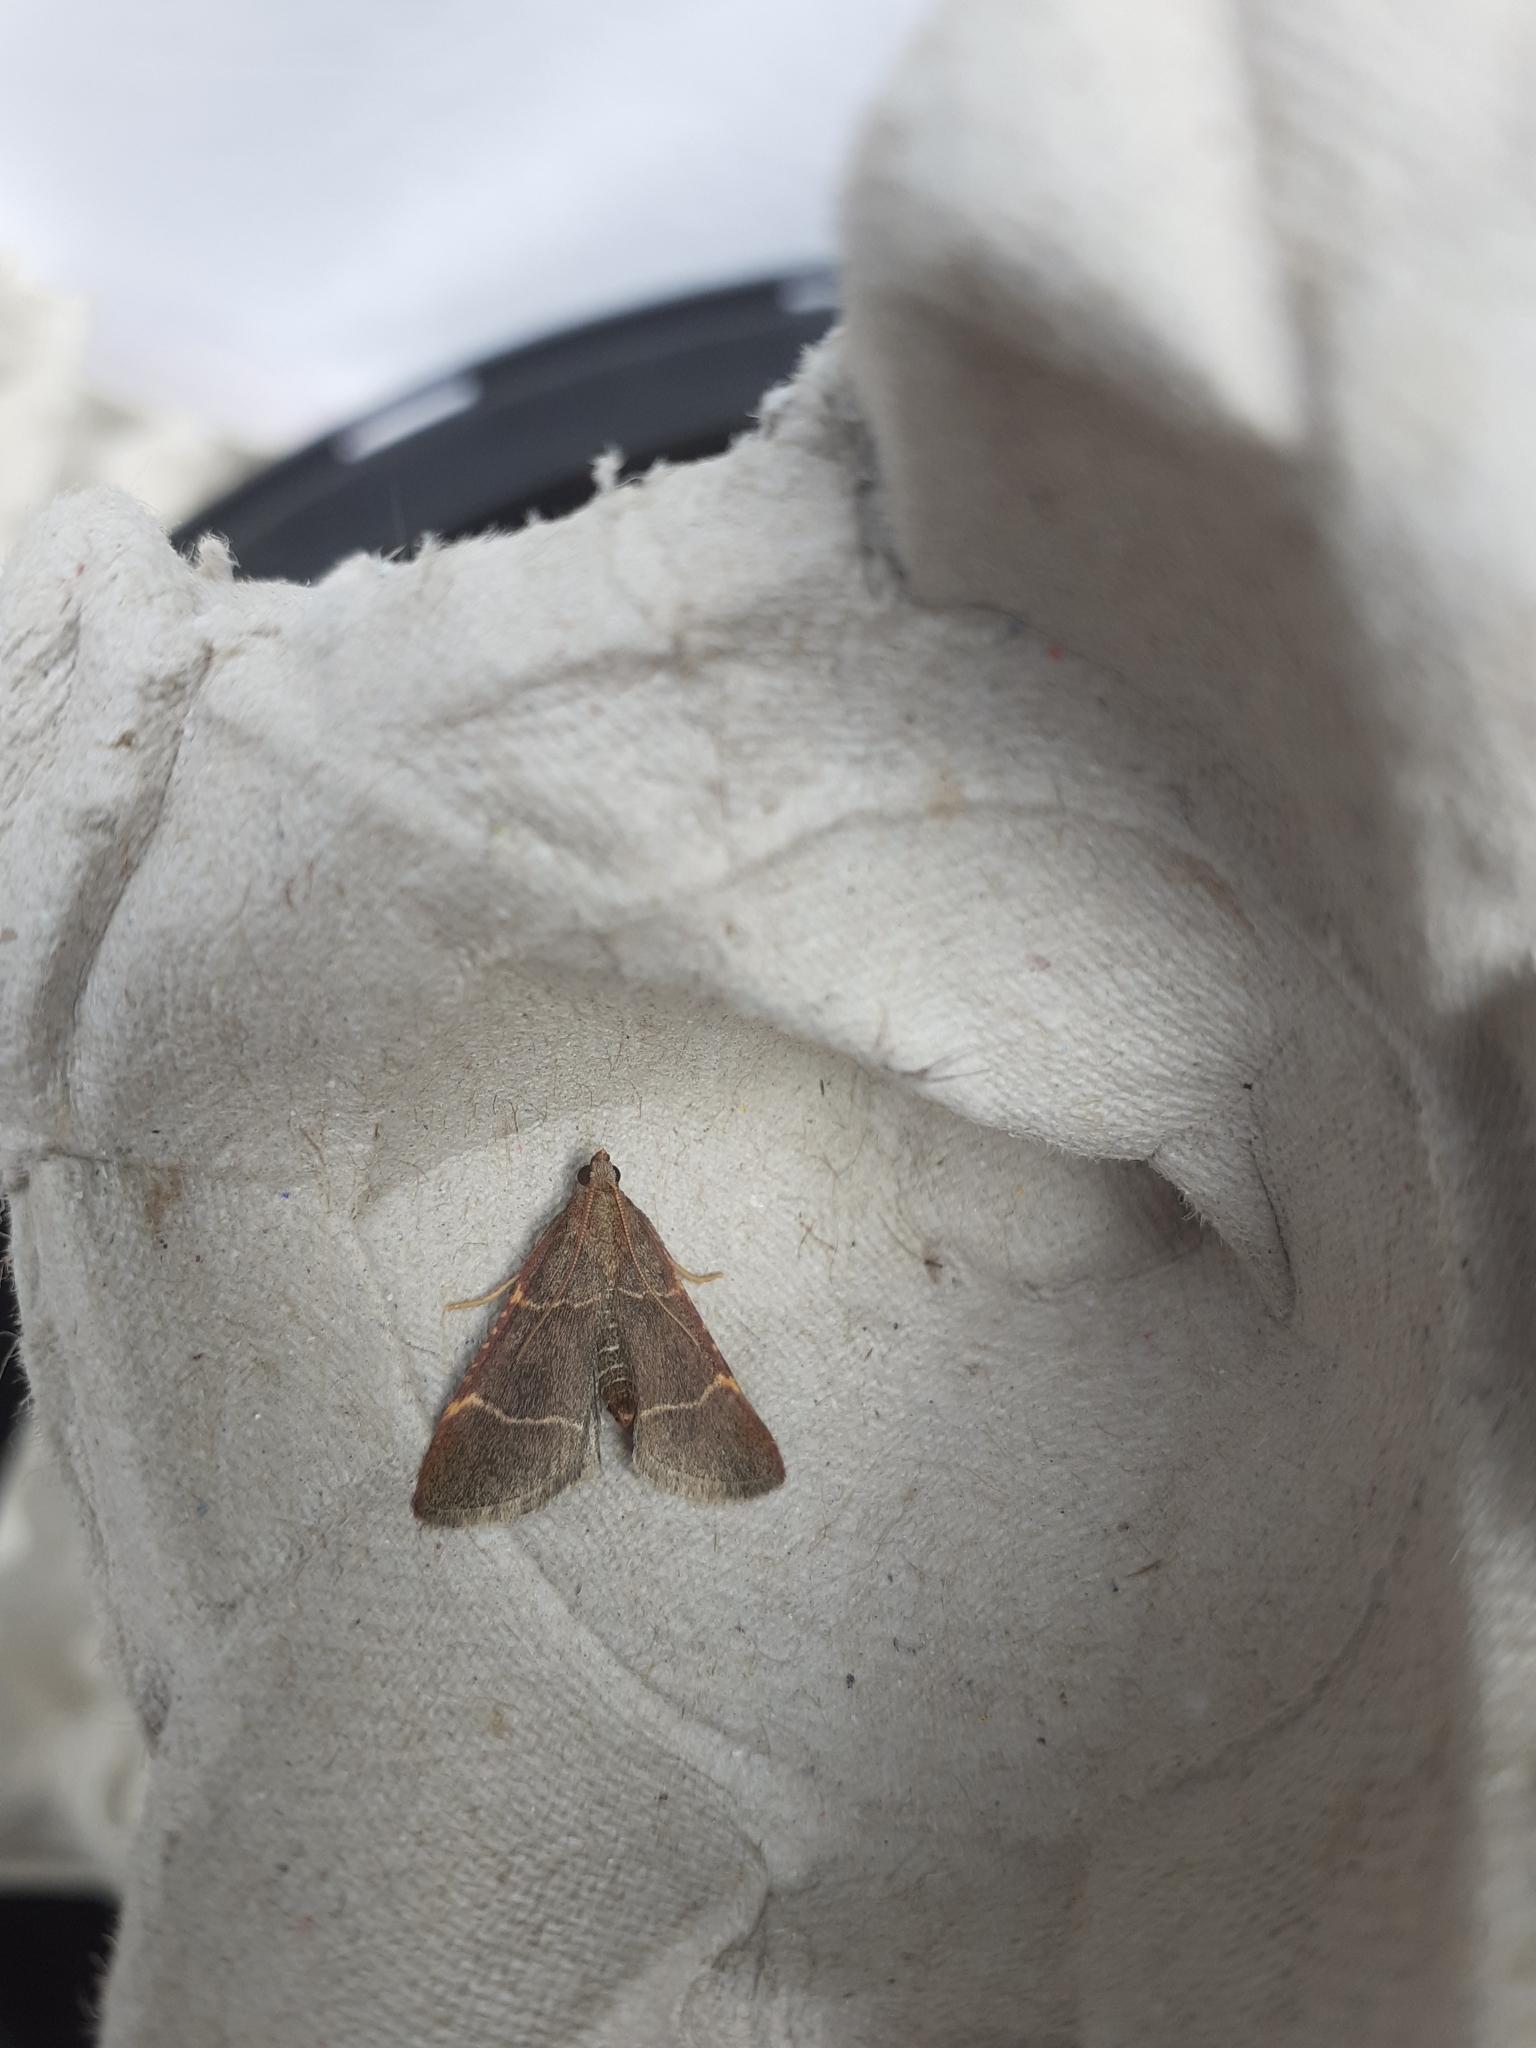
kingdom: Animalia
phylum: Arthropoda
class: Insecta
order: Lepidoptera
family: Pyralidae
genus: Hypsopygia
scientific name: Hypsopygia glaucinalis
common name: Double-striped tabby
